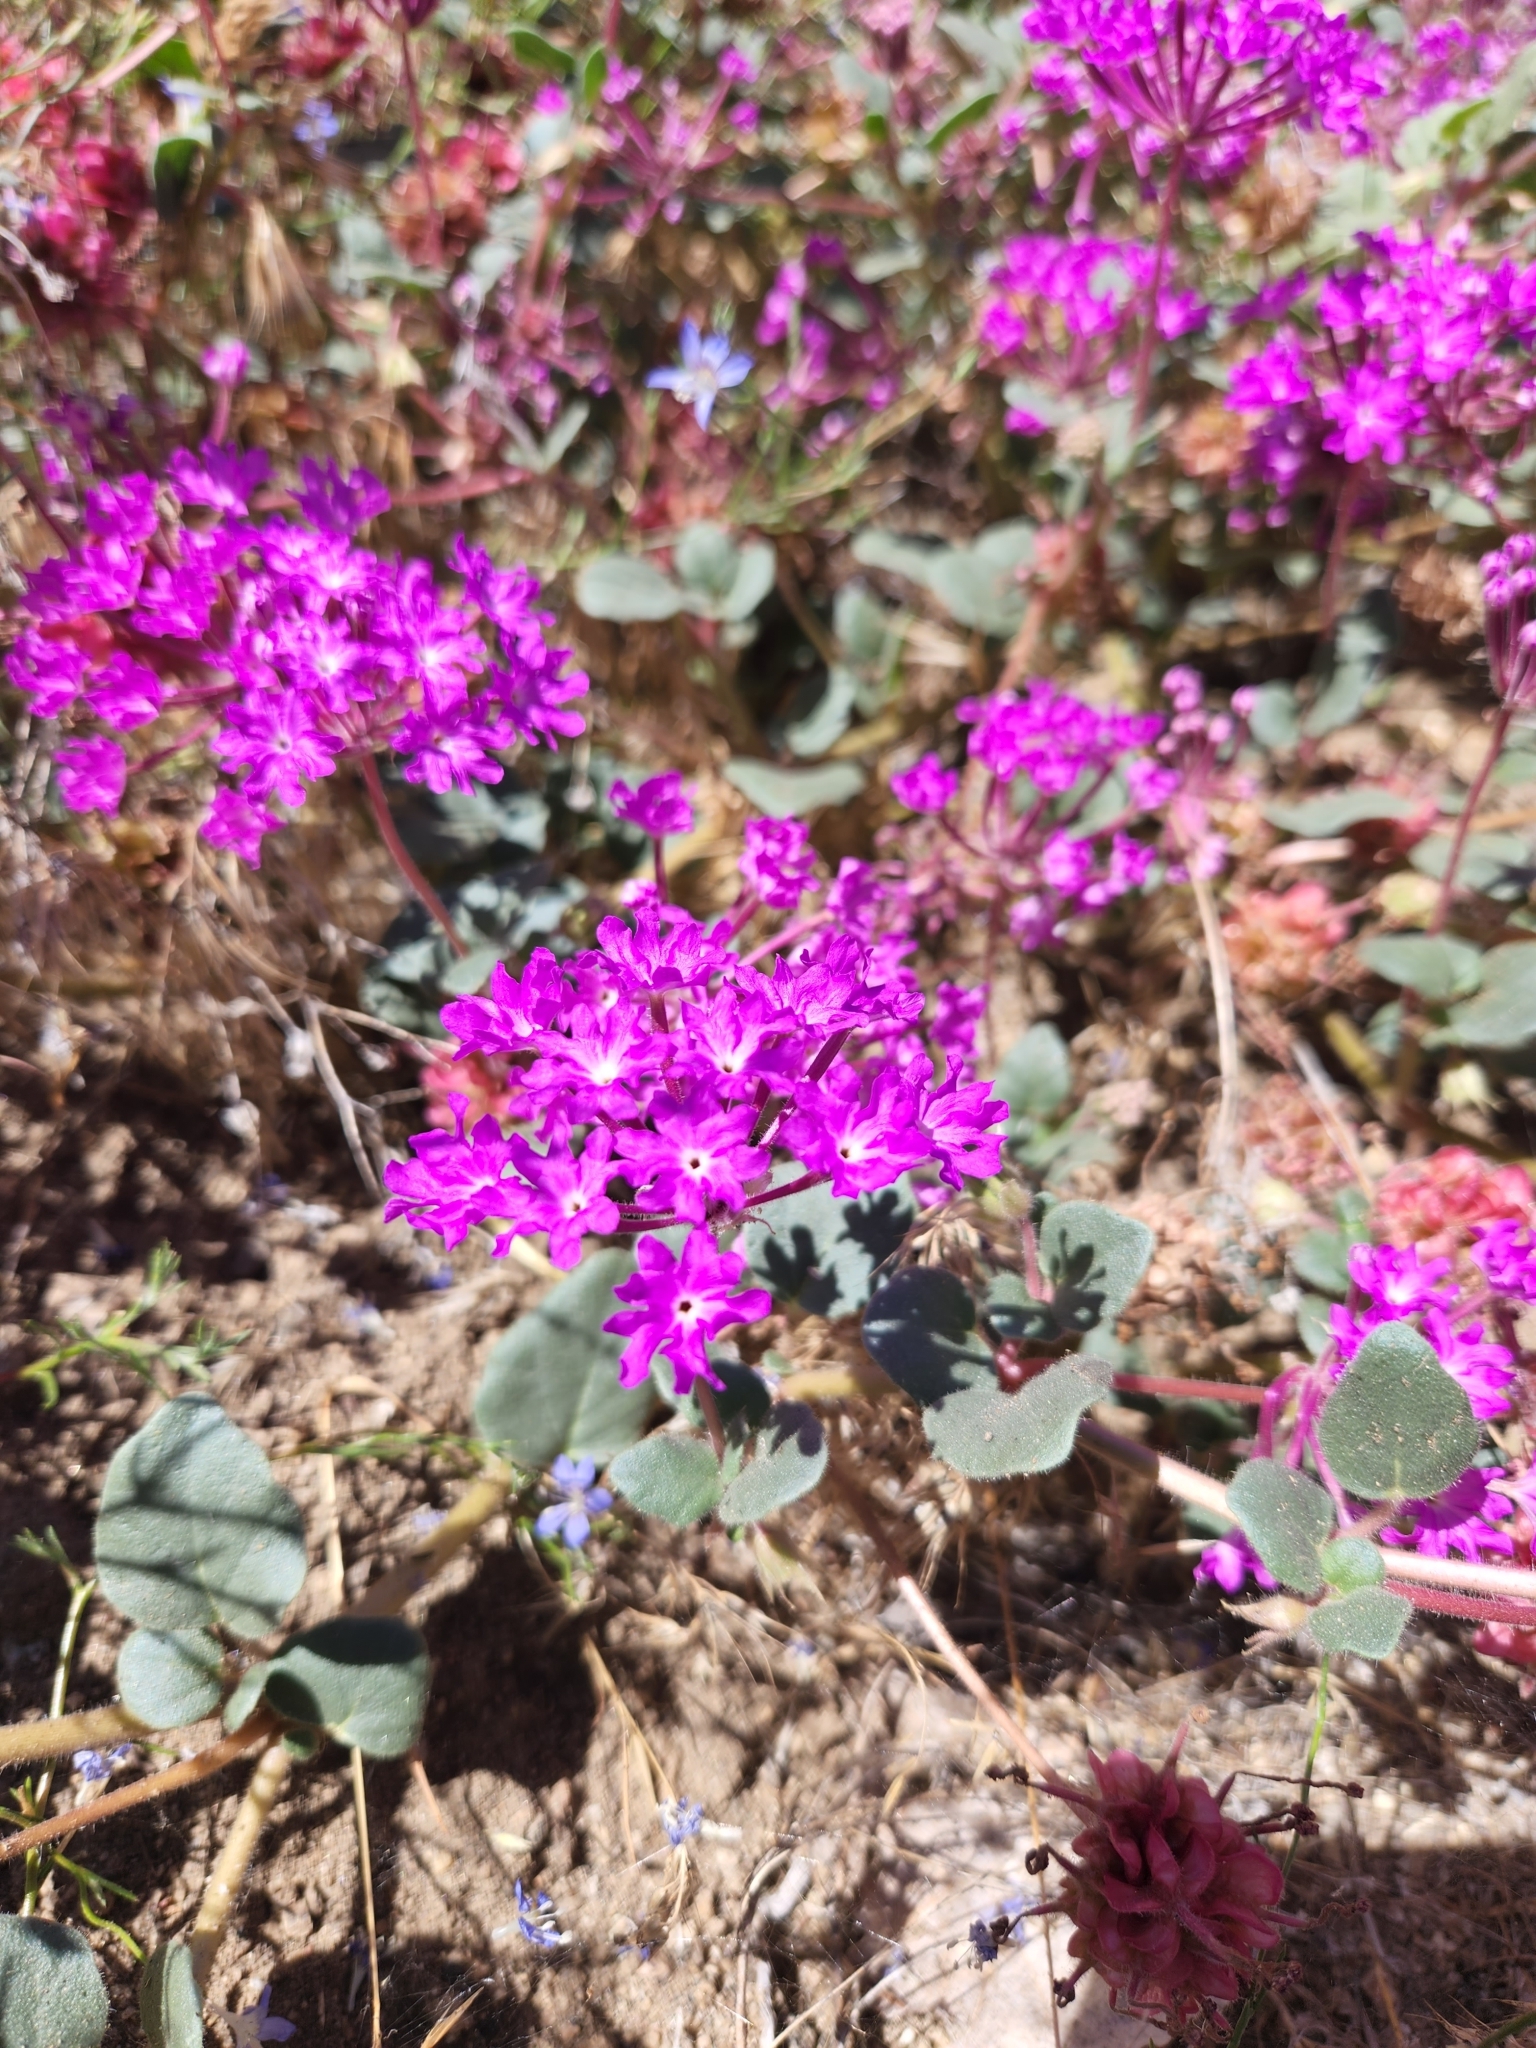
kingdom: Plantae
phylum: Tracheophyta
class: Magnoliopsida
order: Caryophyllales
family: Nyctaginaceae
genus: Abronia
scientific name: Abronia villosa
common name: Desert sand-verbena
